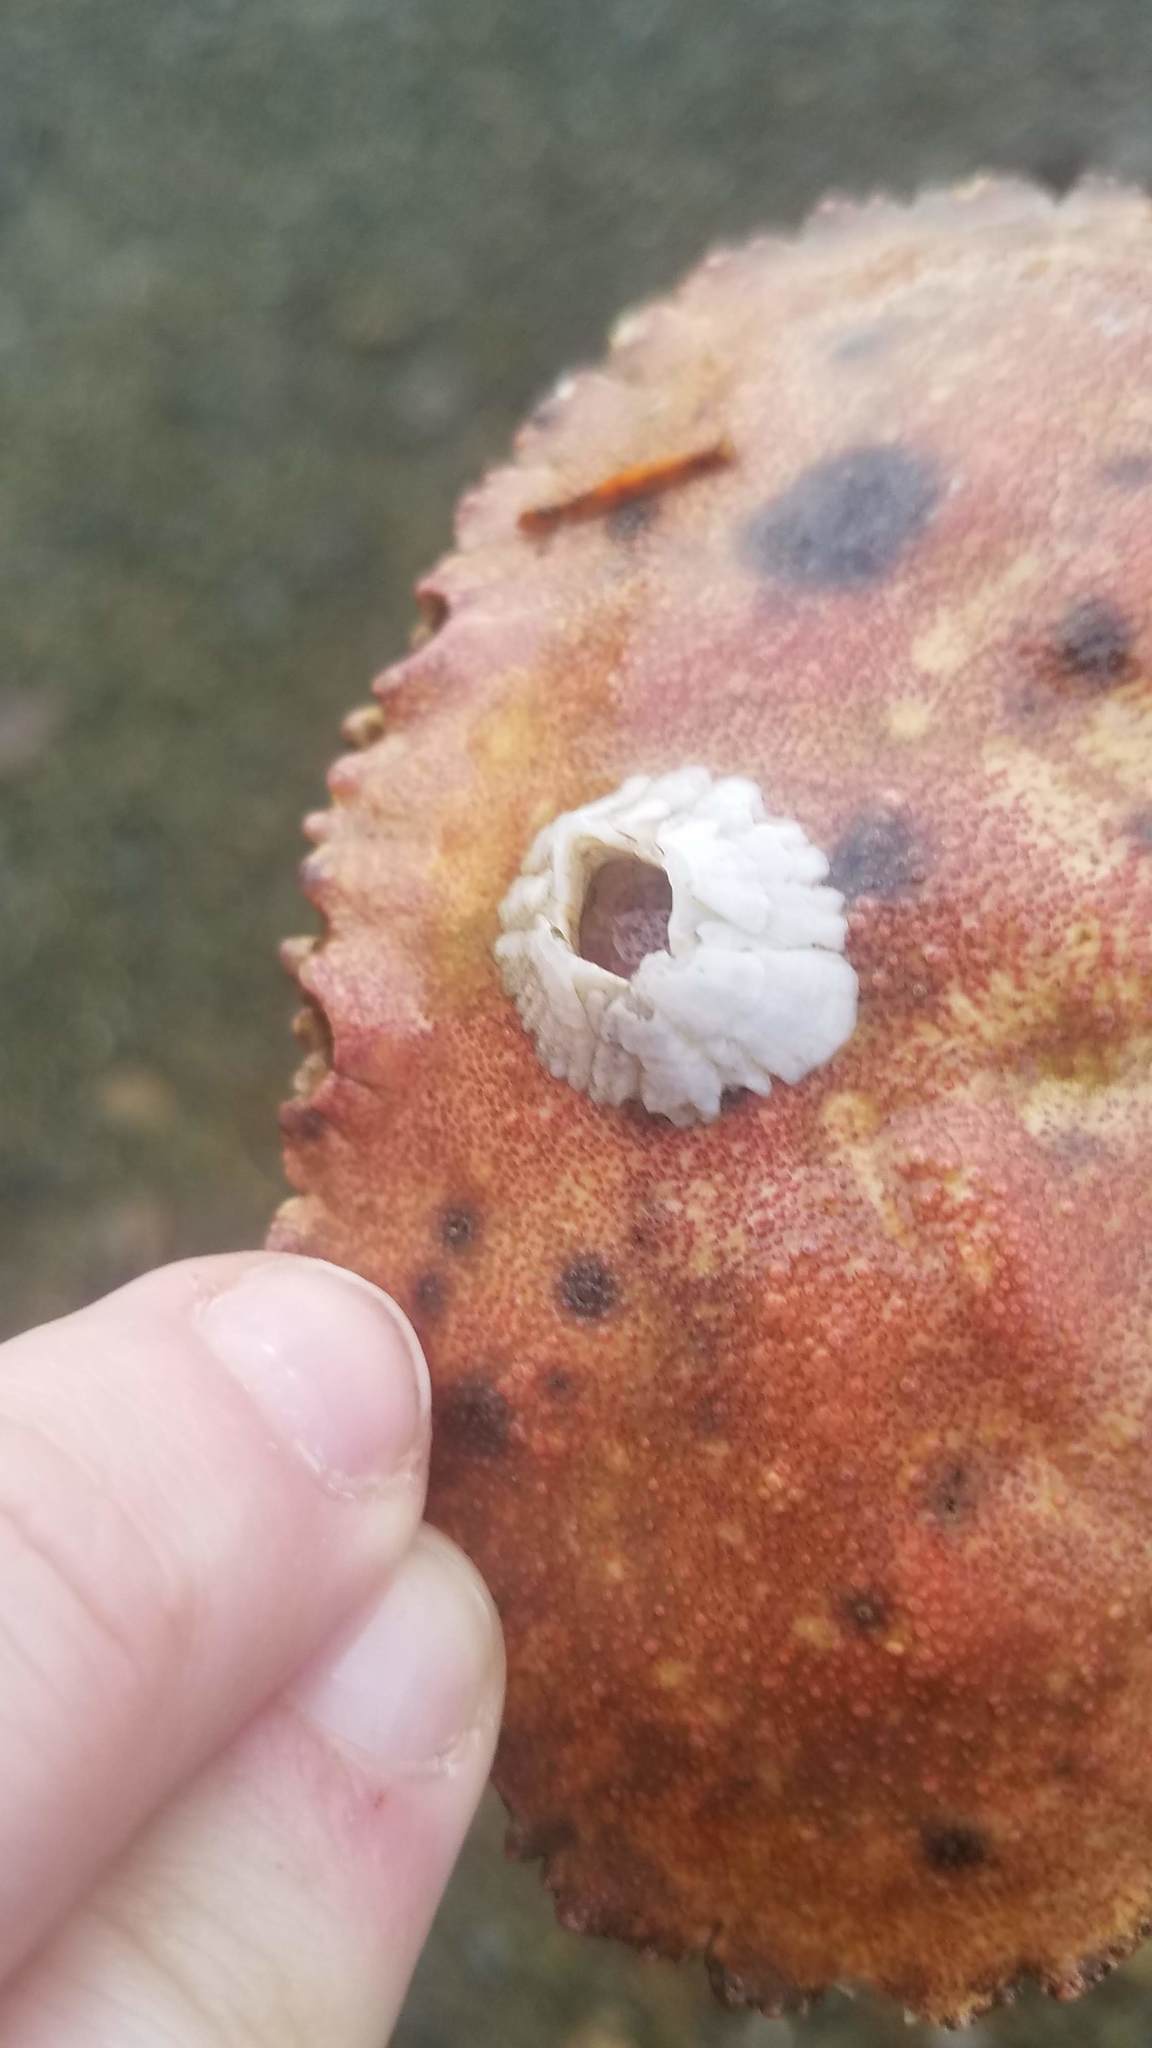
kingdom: Animalia
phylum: Arthropoda
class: Maxillopoda
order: Sessilia
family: Archaeobalanidae
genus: Semibalanus
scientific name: Semibalanus balanoides
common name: Acorn barnacle
